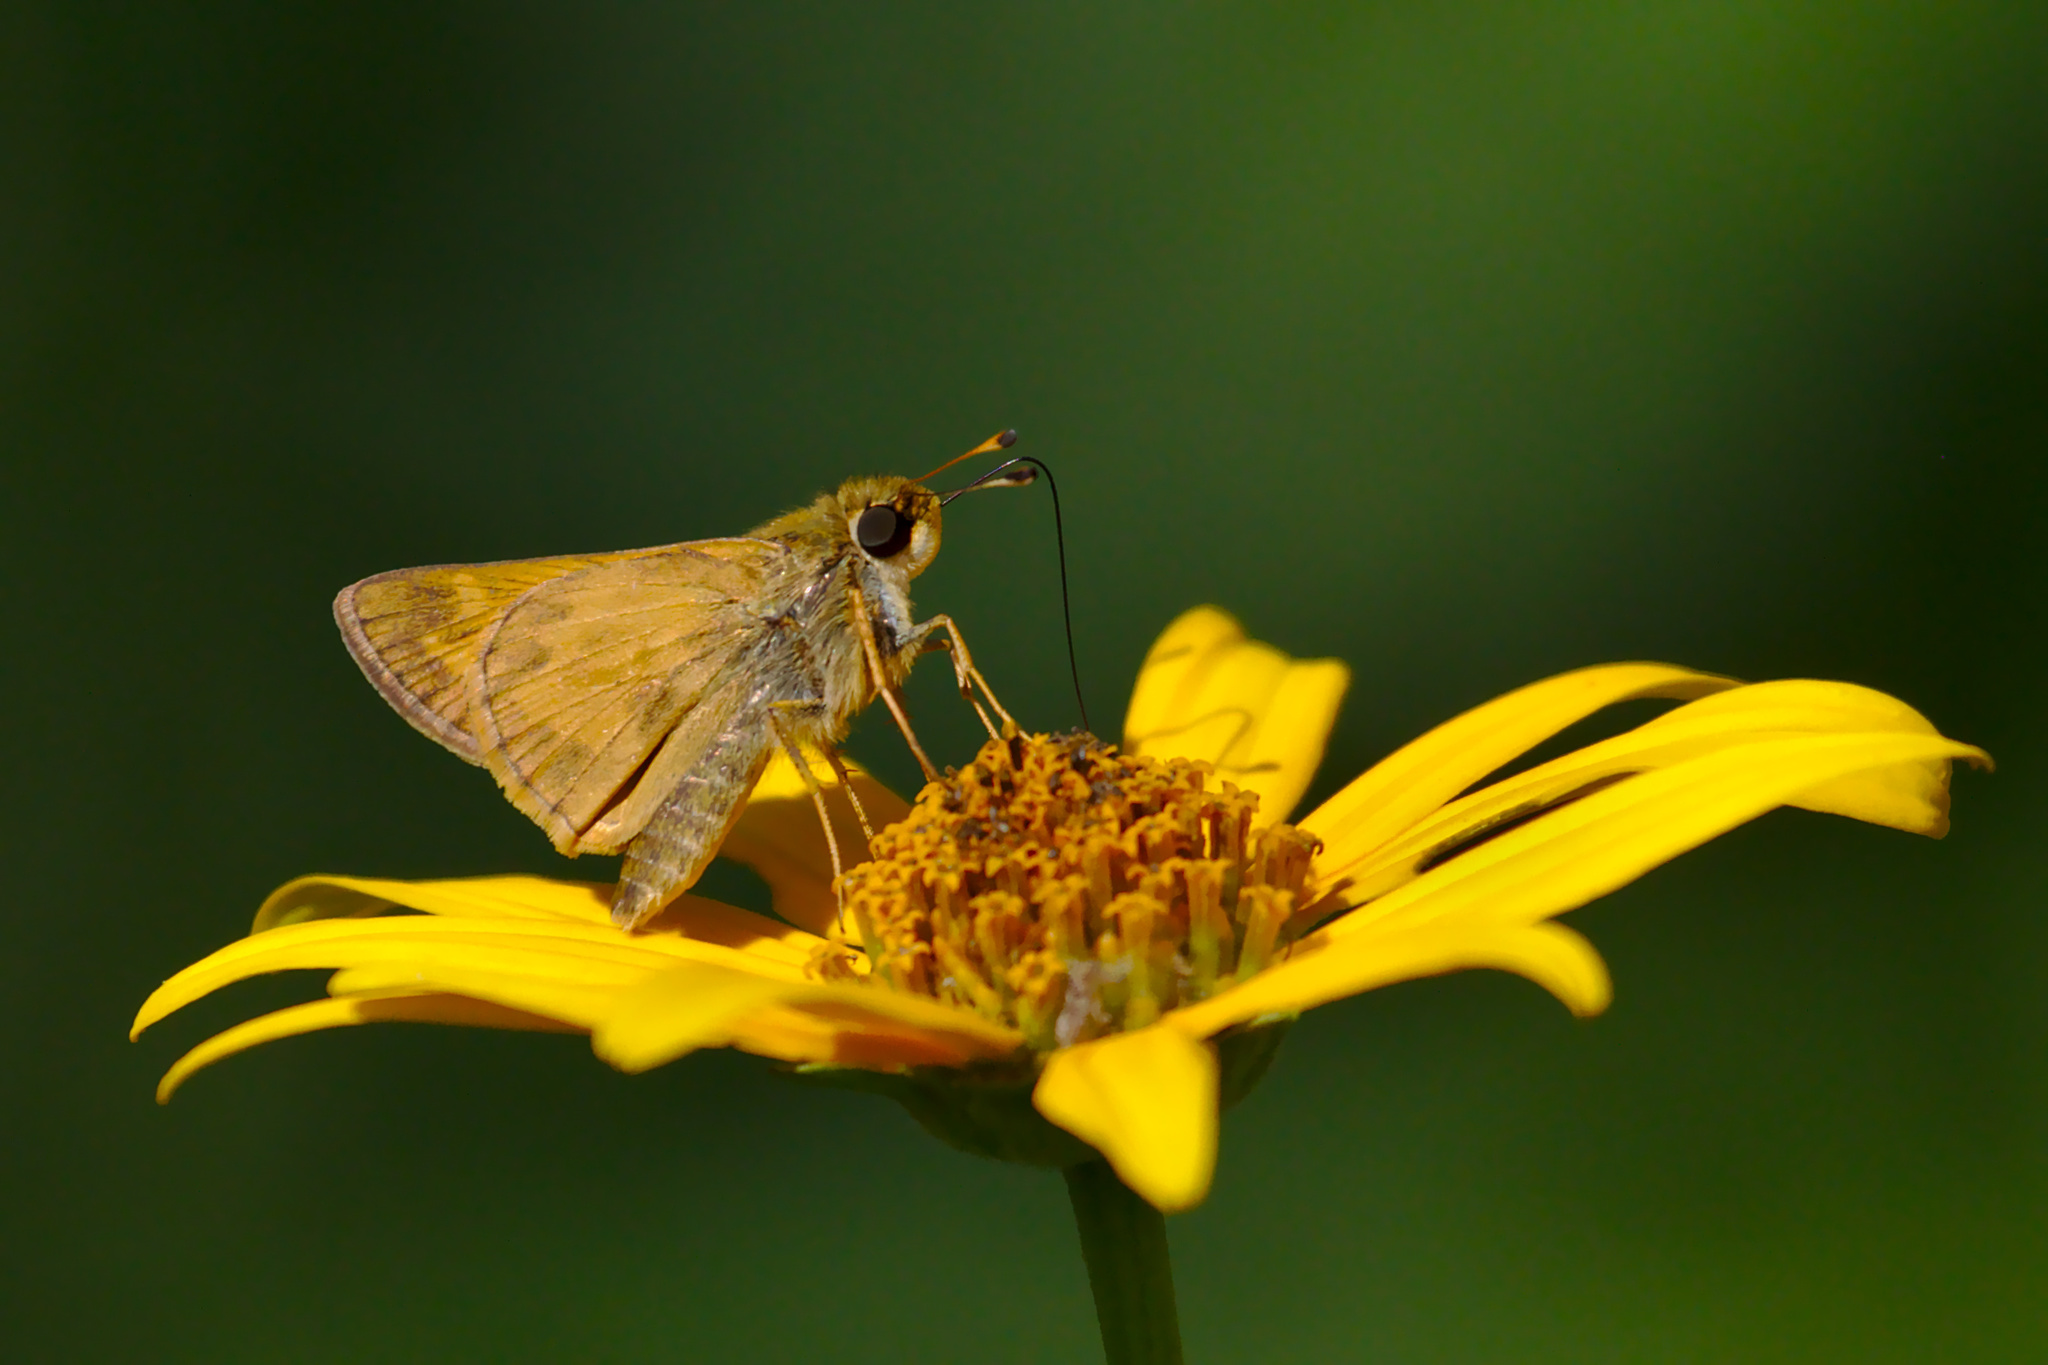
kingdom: Animalia
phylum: Arthropoda
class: Insecta
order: Lepidoptera
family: Hesperiidae
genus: Atalopedes
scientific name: Atalopedes
